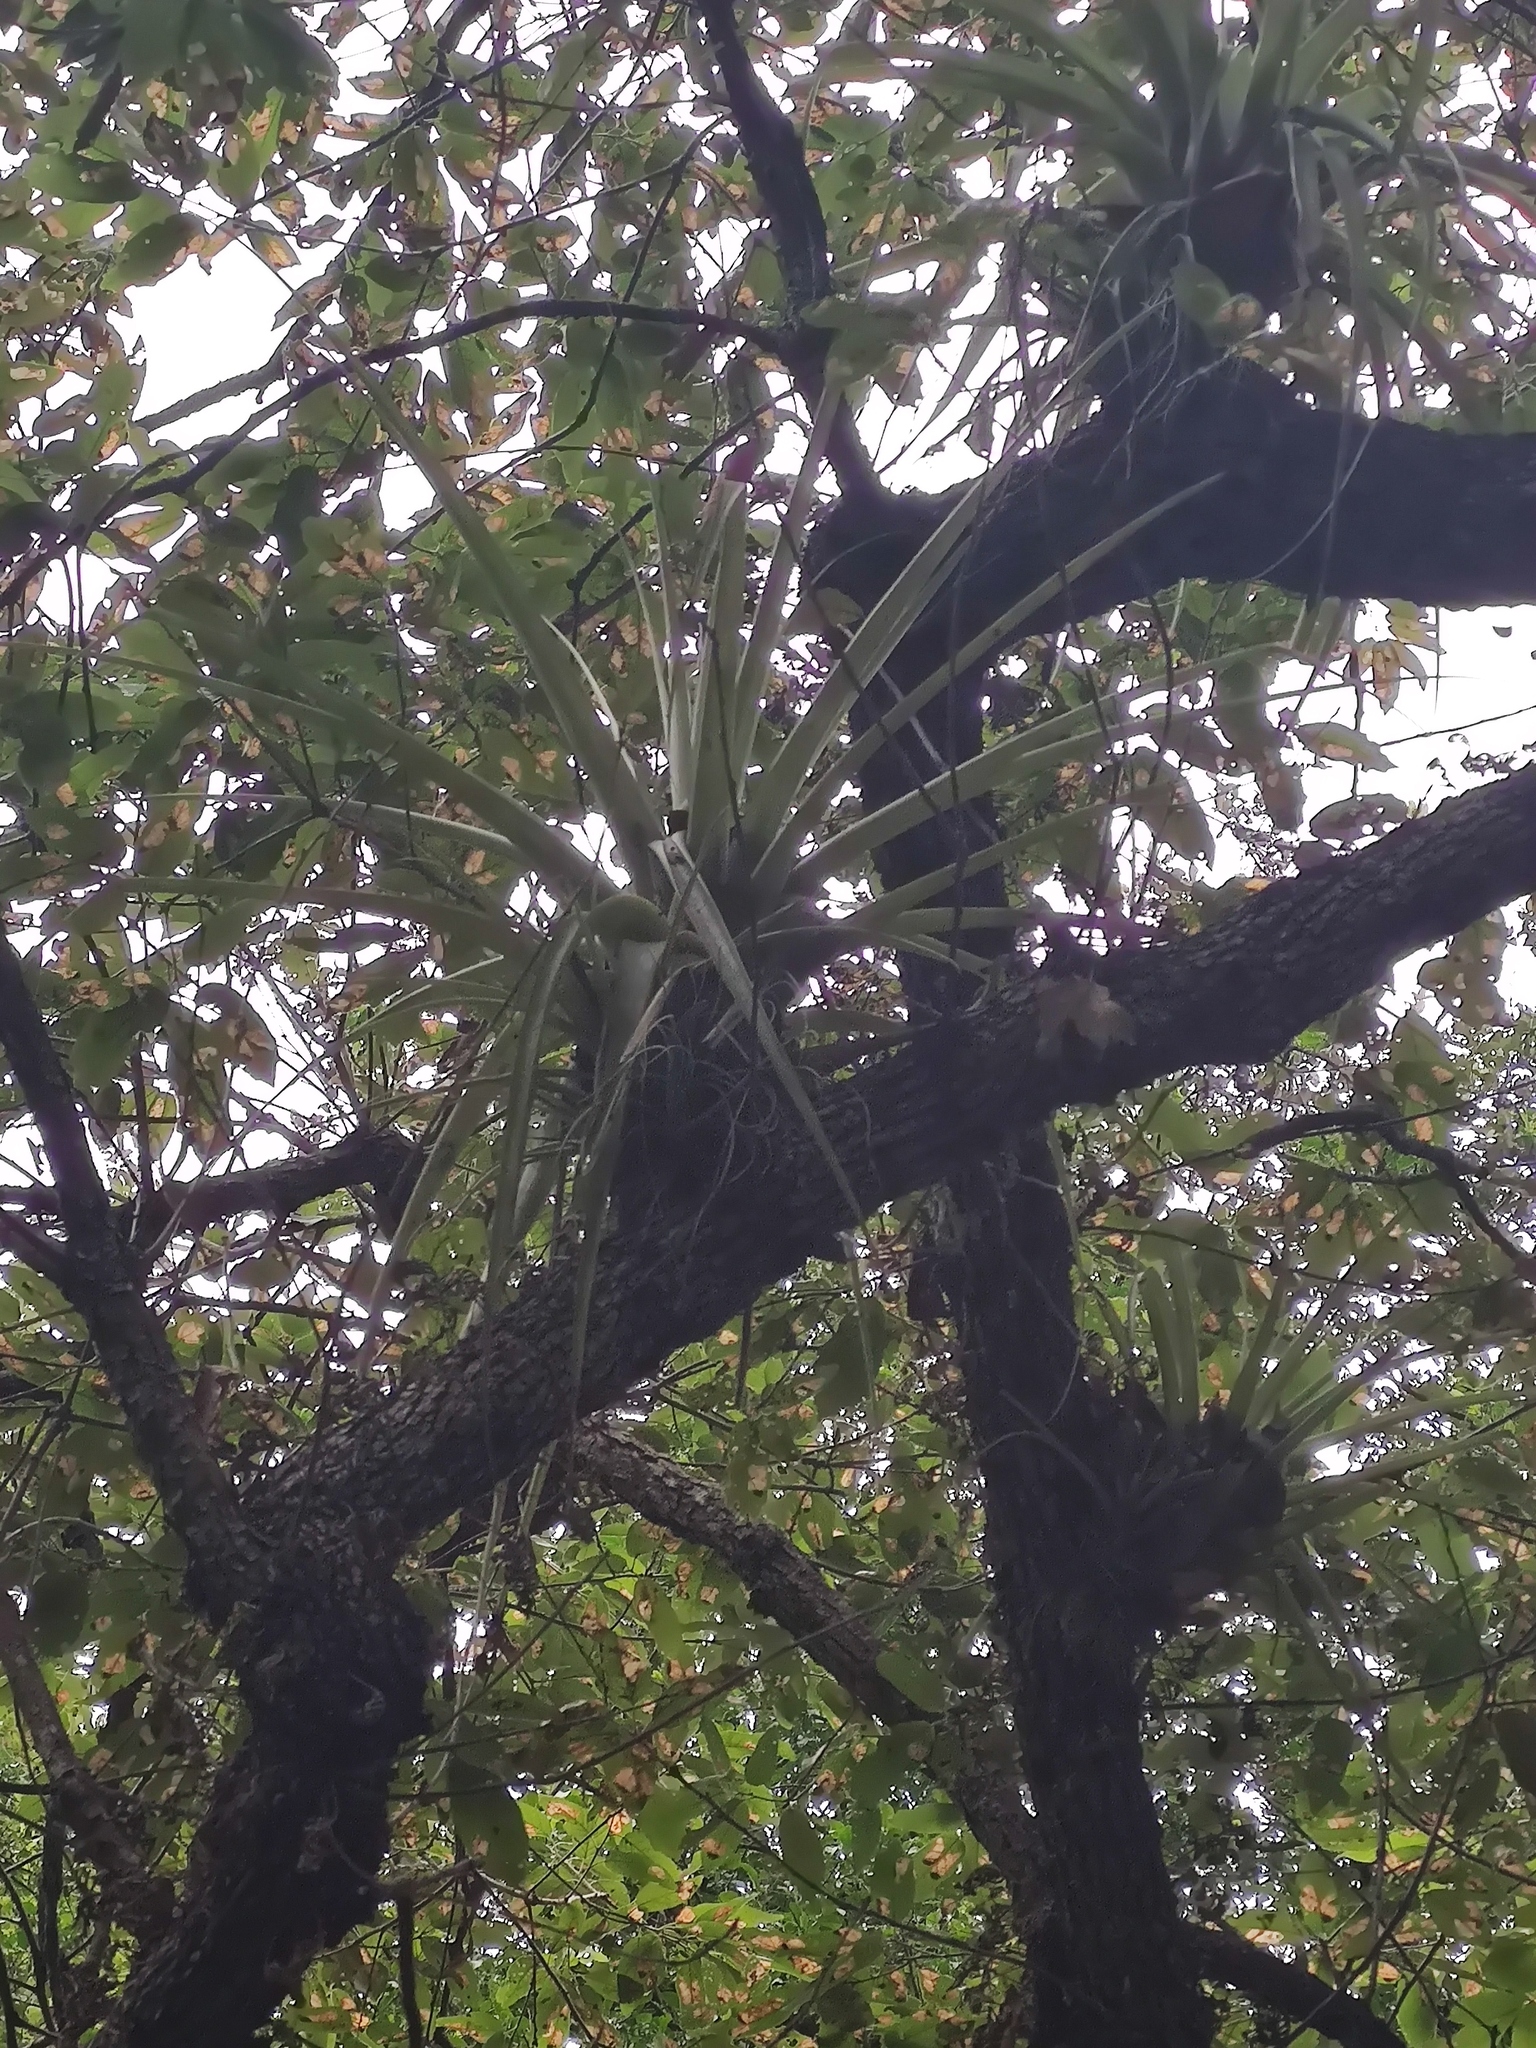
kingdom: Plantae
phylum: Tracheophyta
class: Liliopsida
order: Poales
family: Bromeliaceae
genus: Tillandsia
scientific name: Tillandsia parryi
